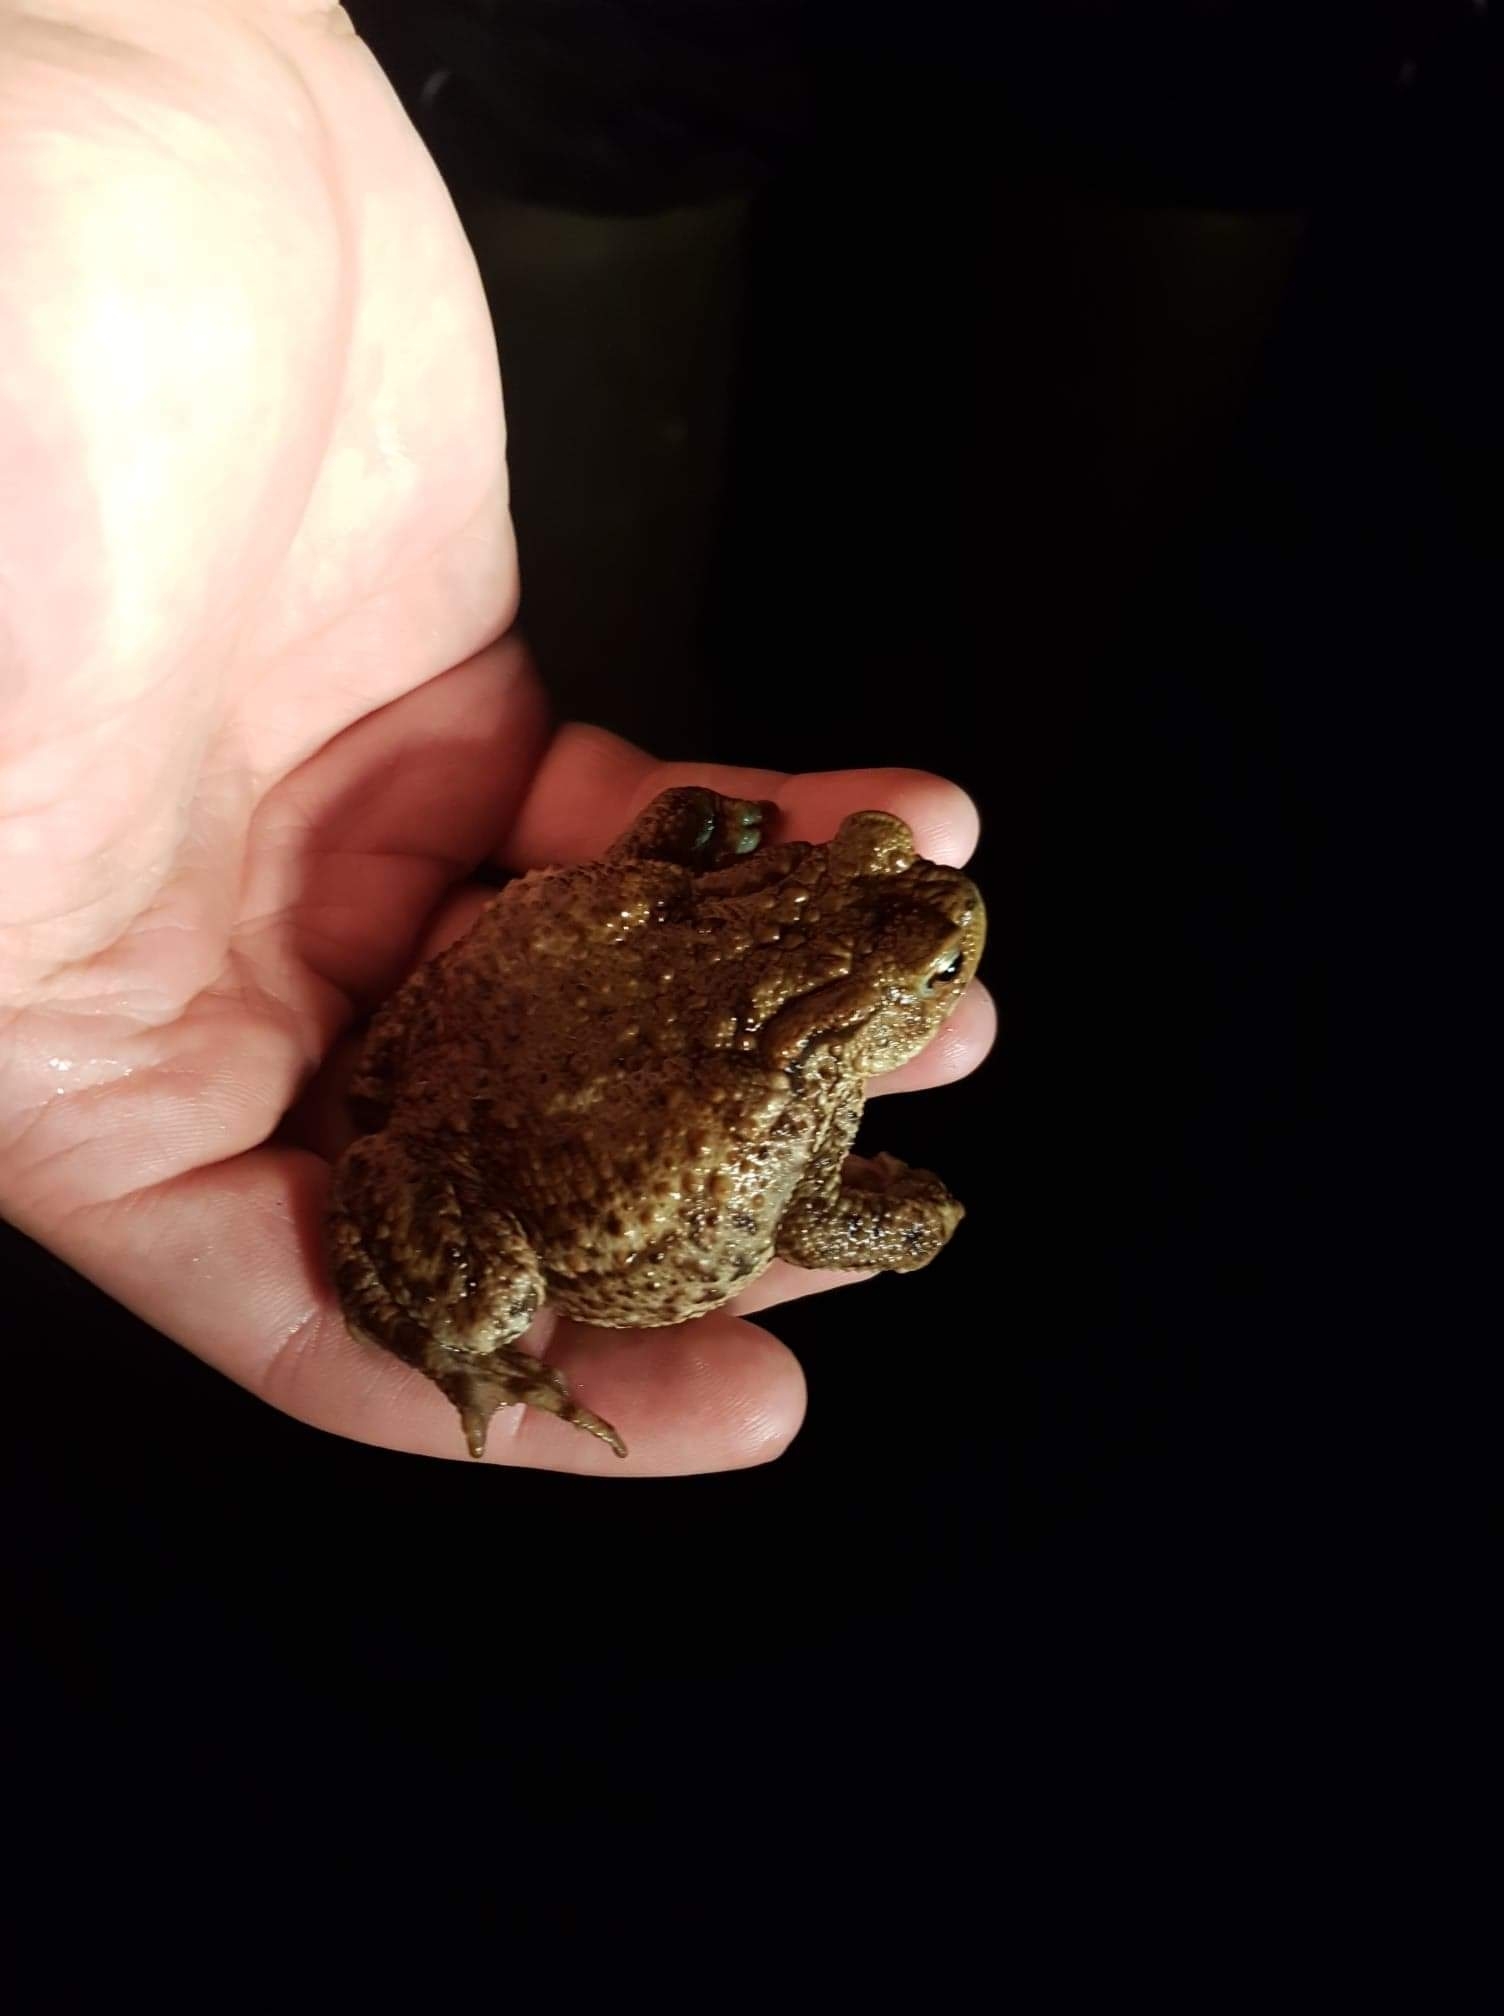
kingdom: Animalia
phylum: Chordata
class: Amphibia
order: Anura
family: Bufonidae
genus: Bufo
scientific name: Bufo bufo
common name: Common toad
